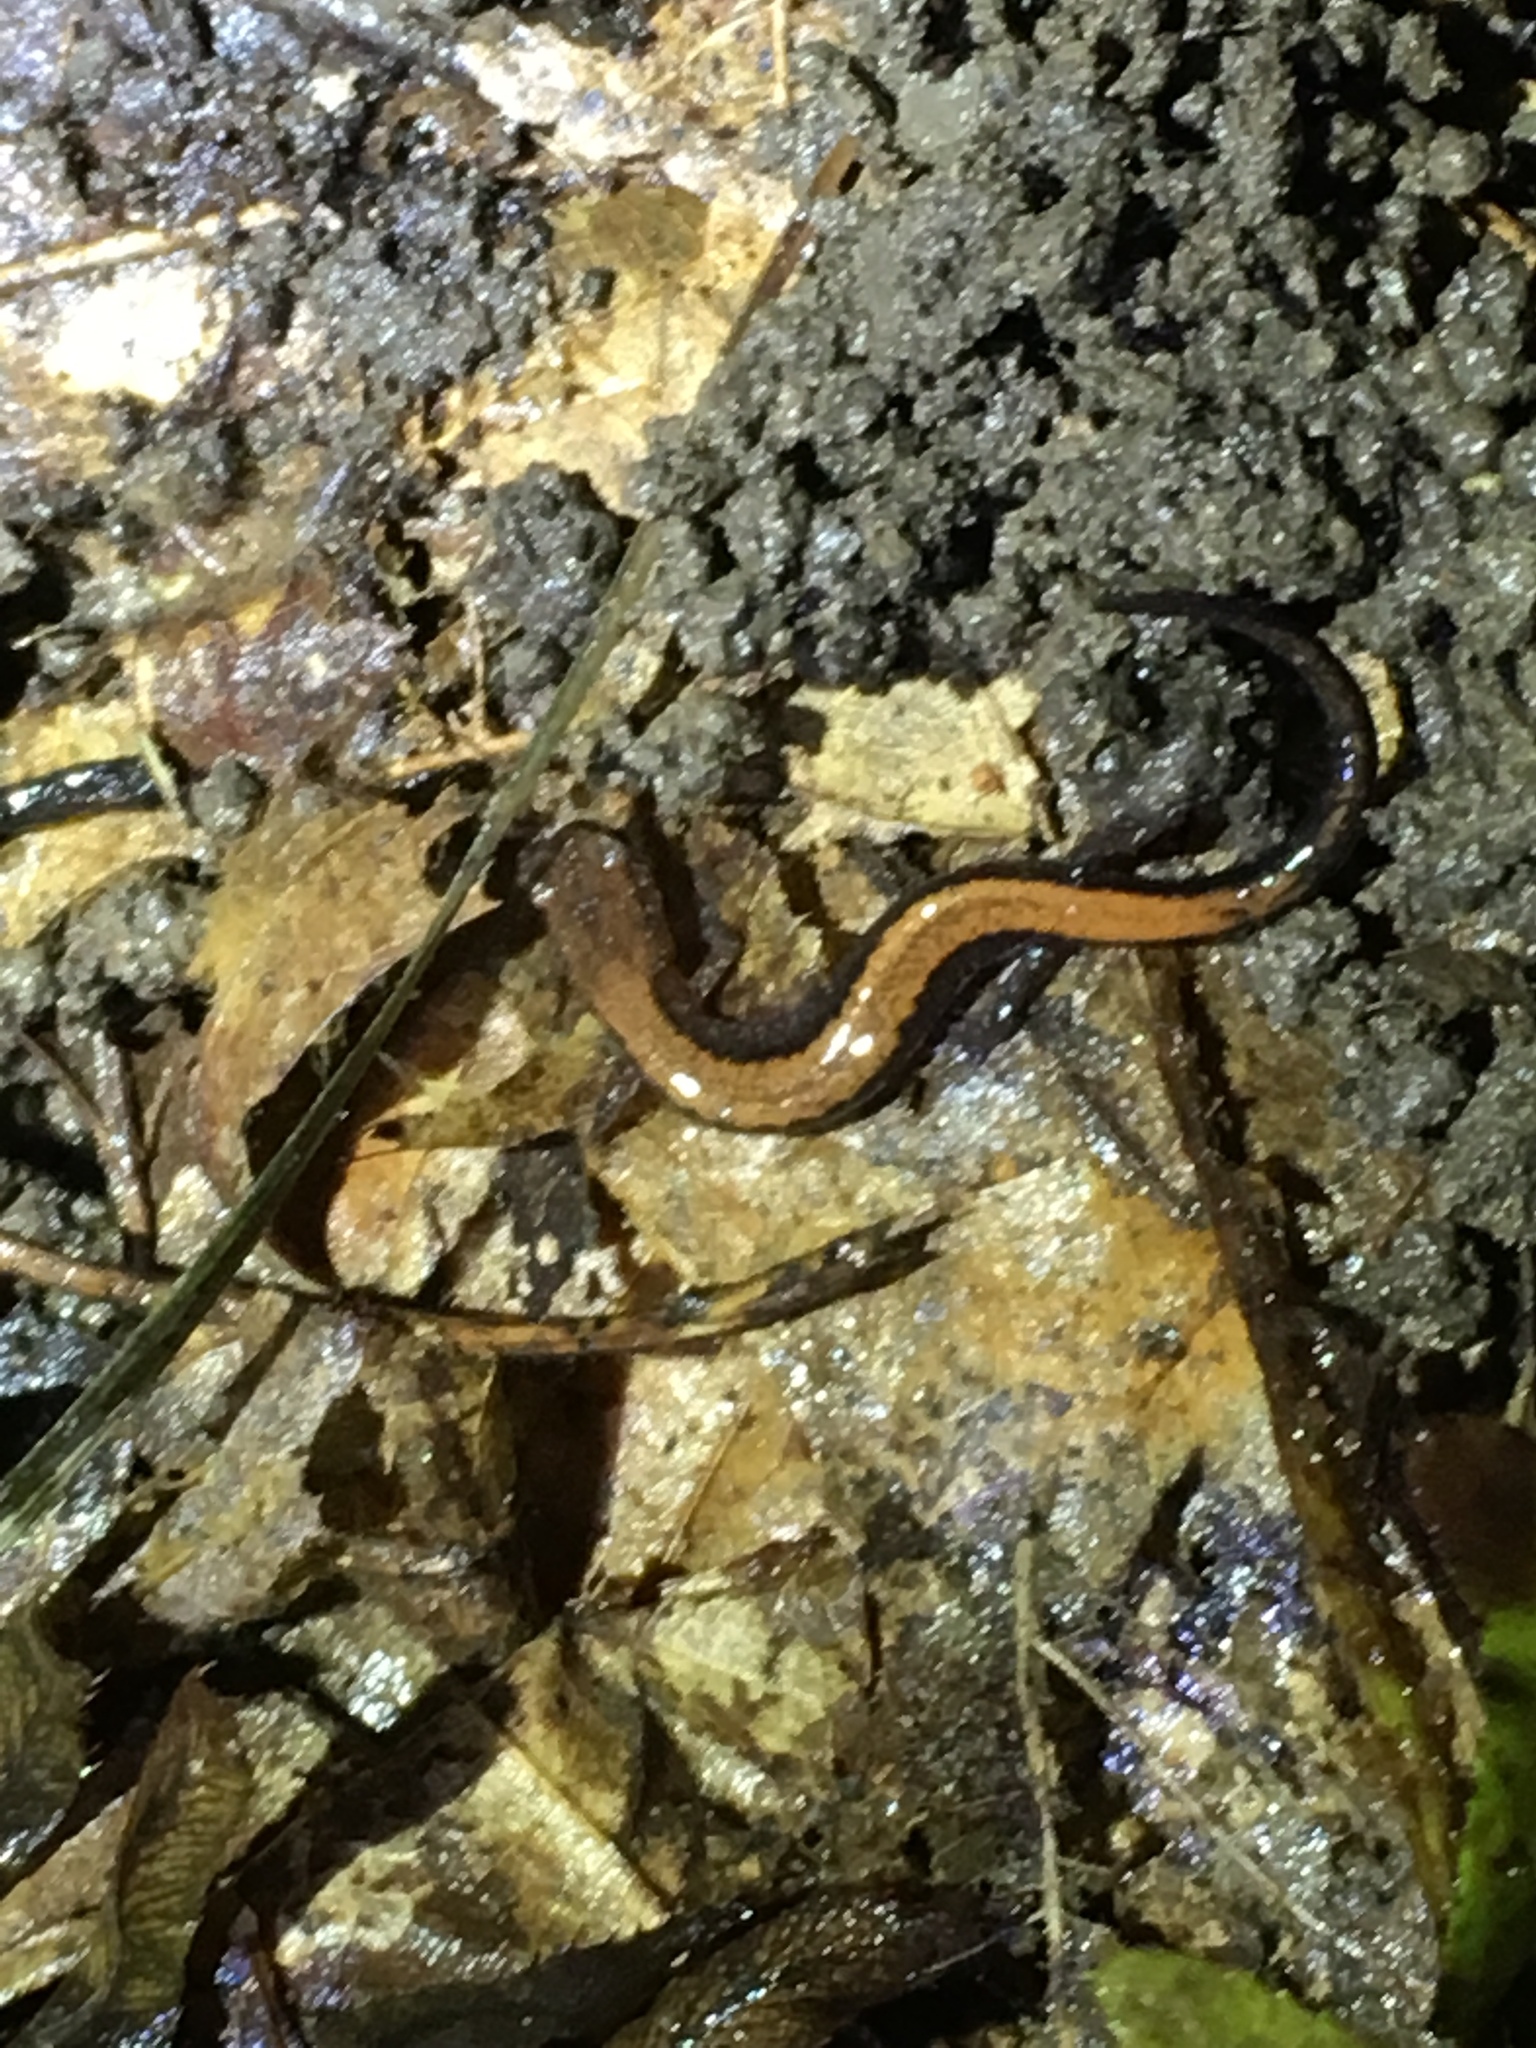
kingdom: Animalia
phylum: Chordata
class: Amphibia
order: Caudata
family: Plethodontidae
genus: Plethodon
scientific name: Plethodon cinereus
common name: Redback salamander
